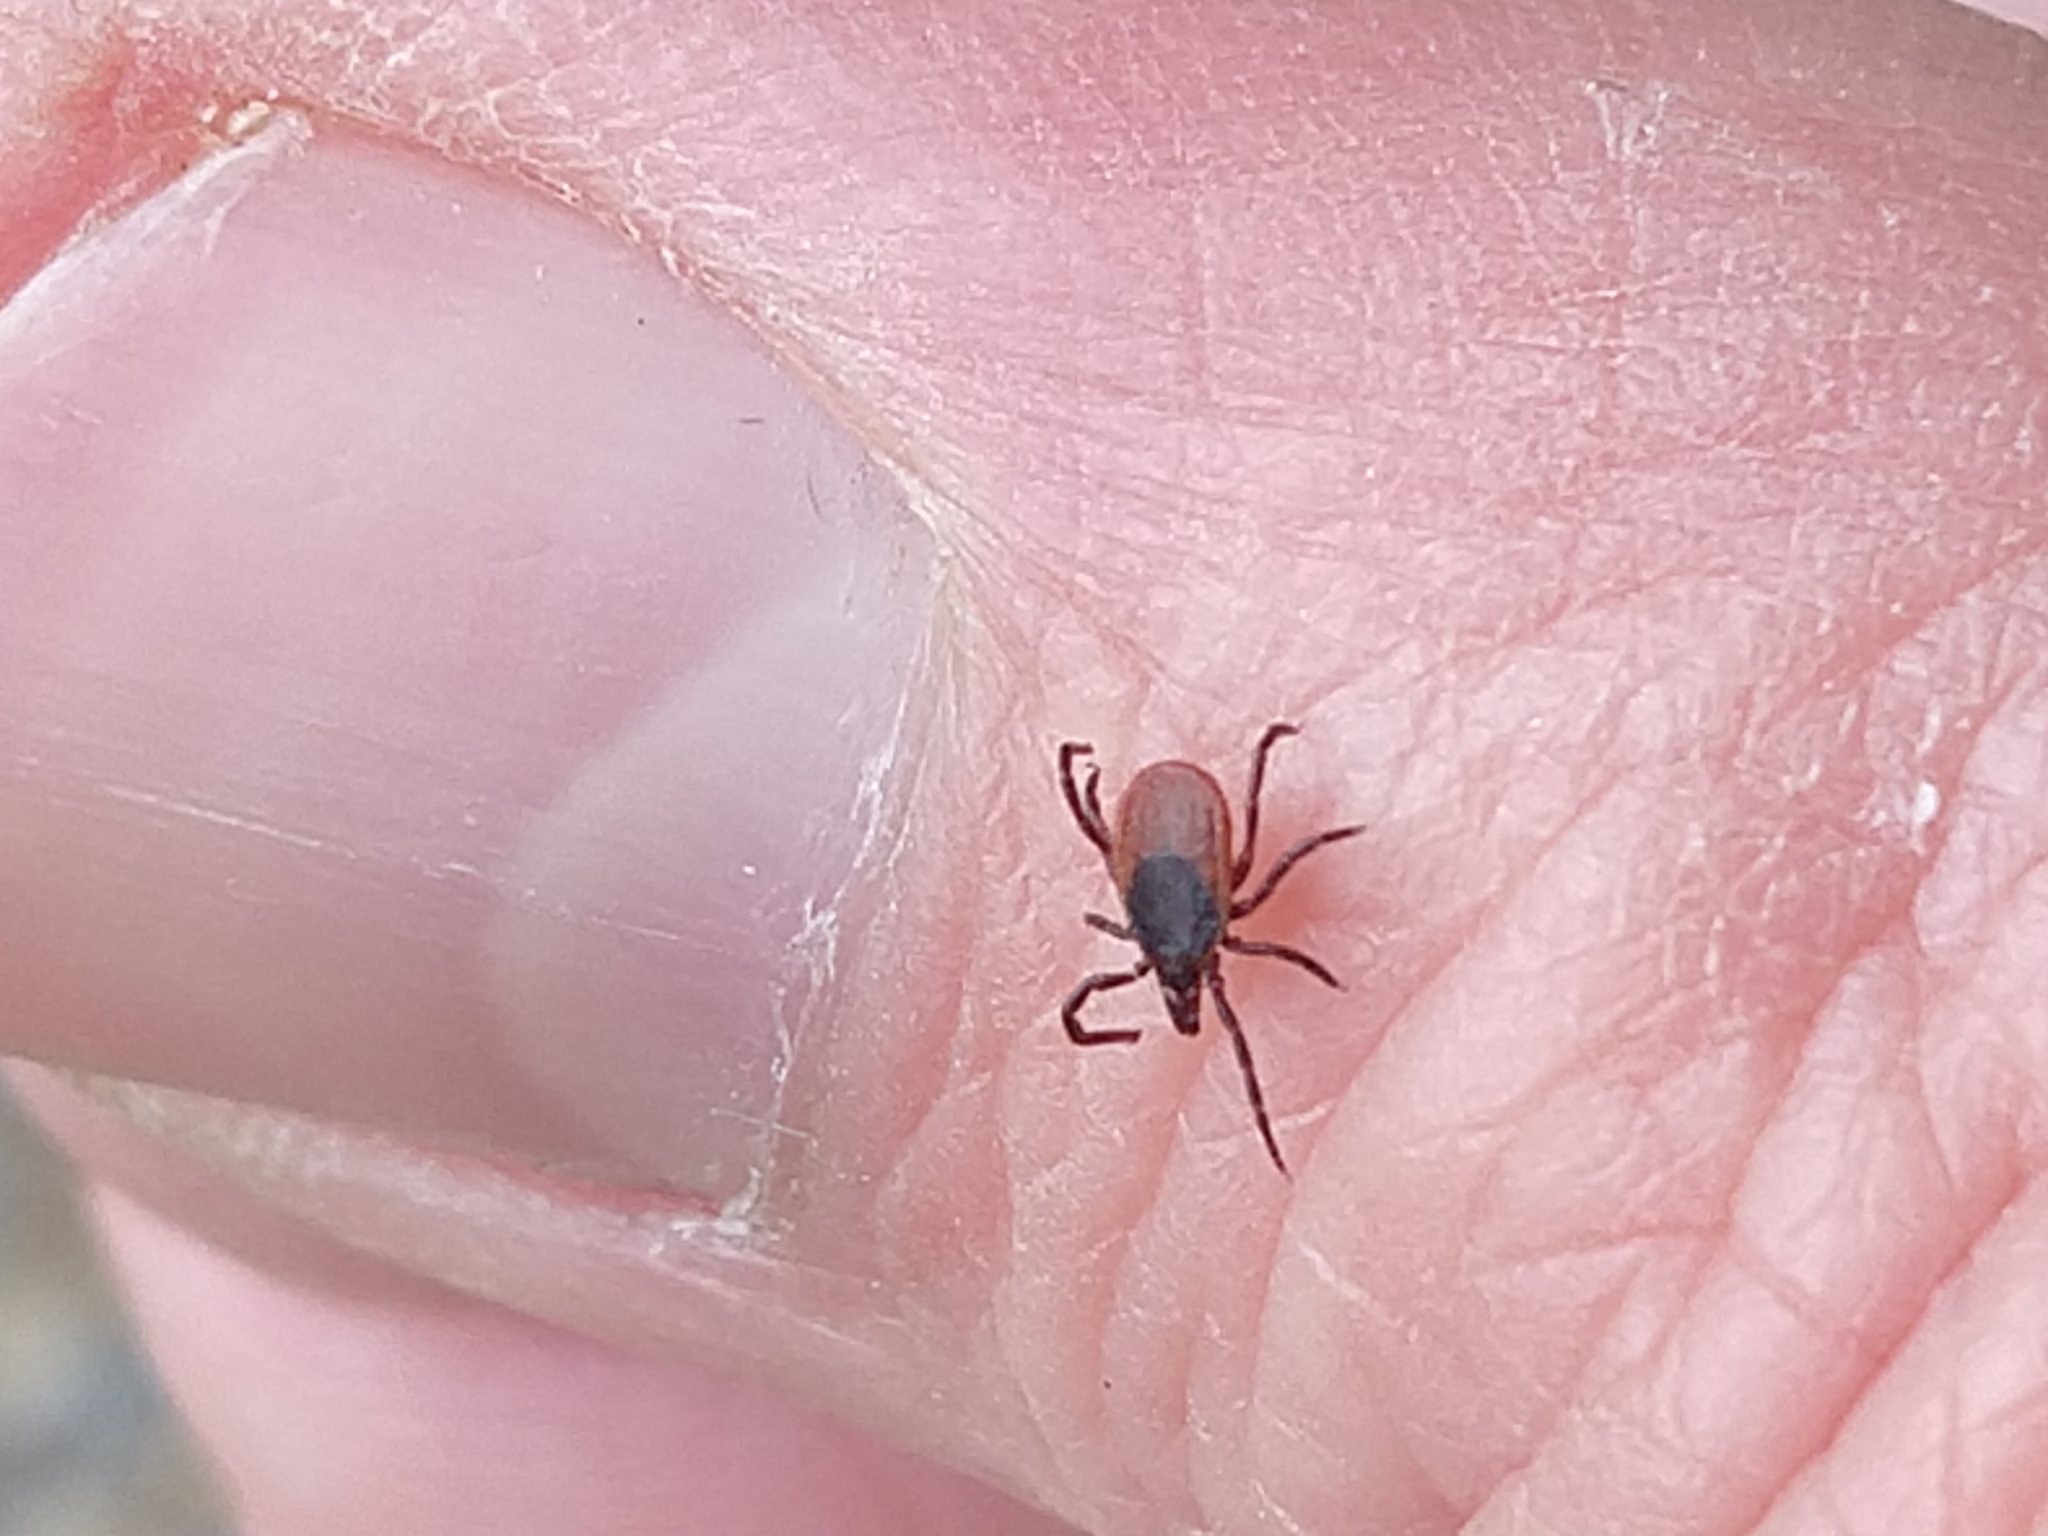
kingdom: Animalia
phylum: Arthropoda
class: Arachnida
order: Ixodida
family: Ixodidae
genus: Ixodes
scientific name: Ixodes ricinus
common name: Castor bean tick
